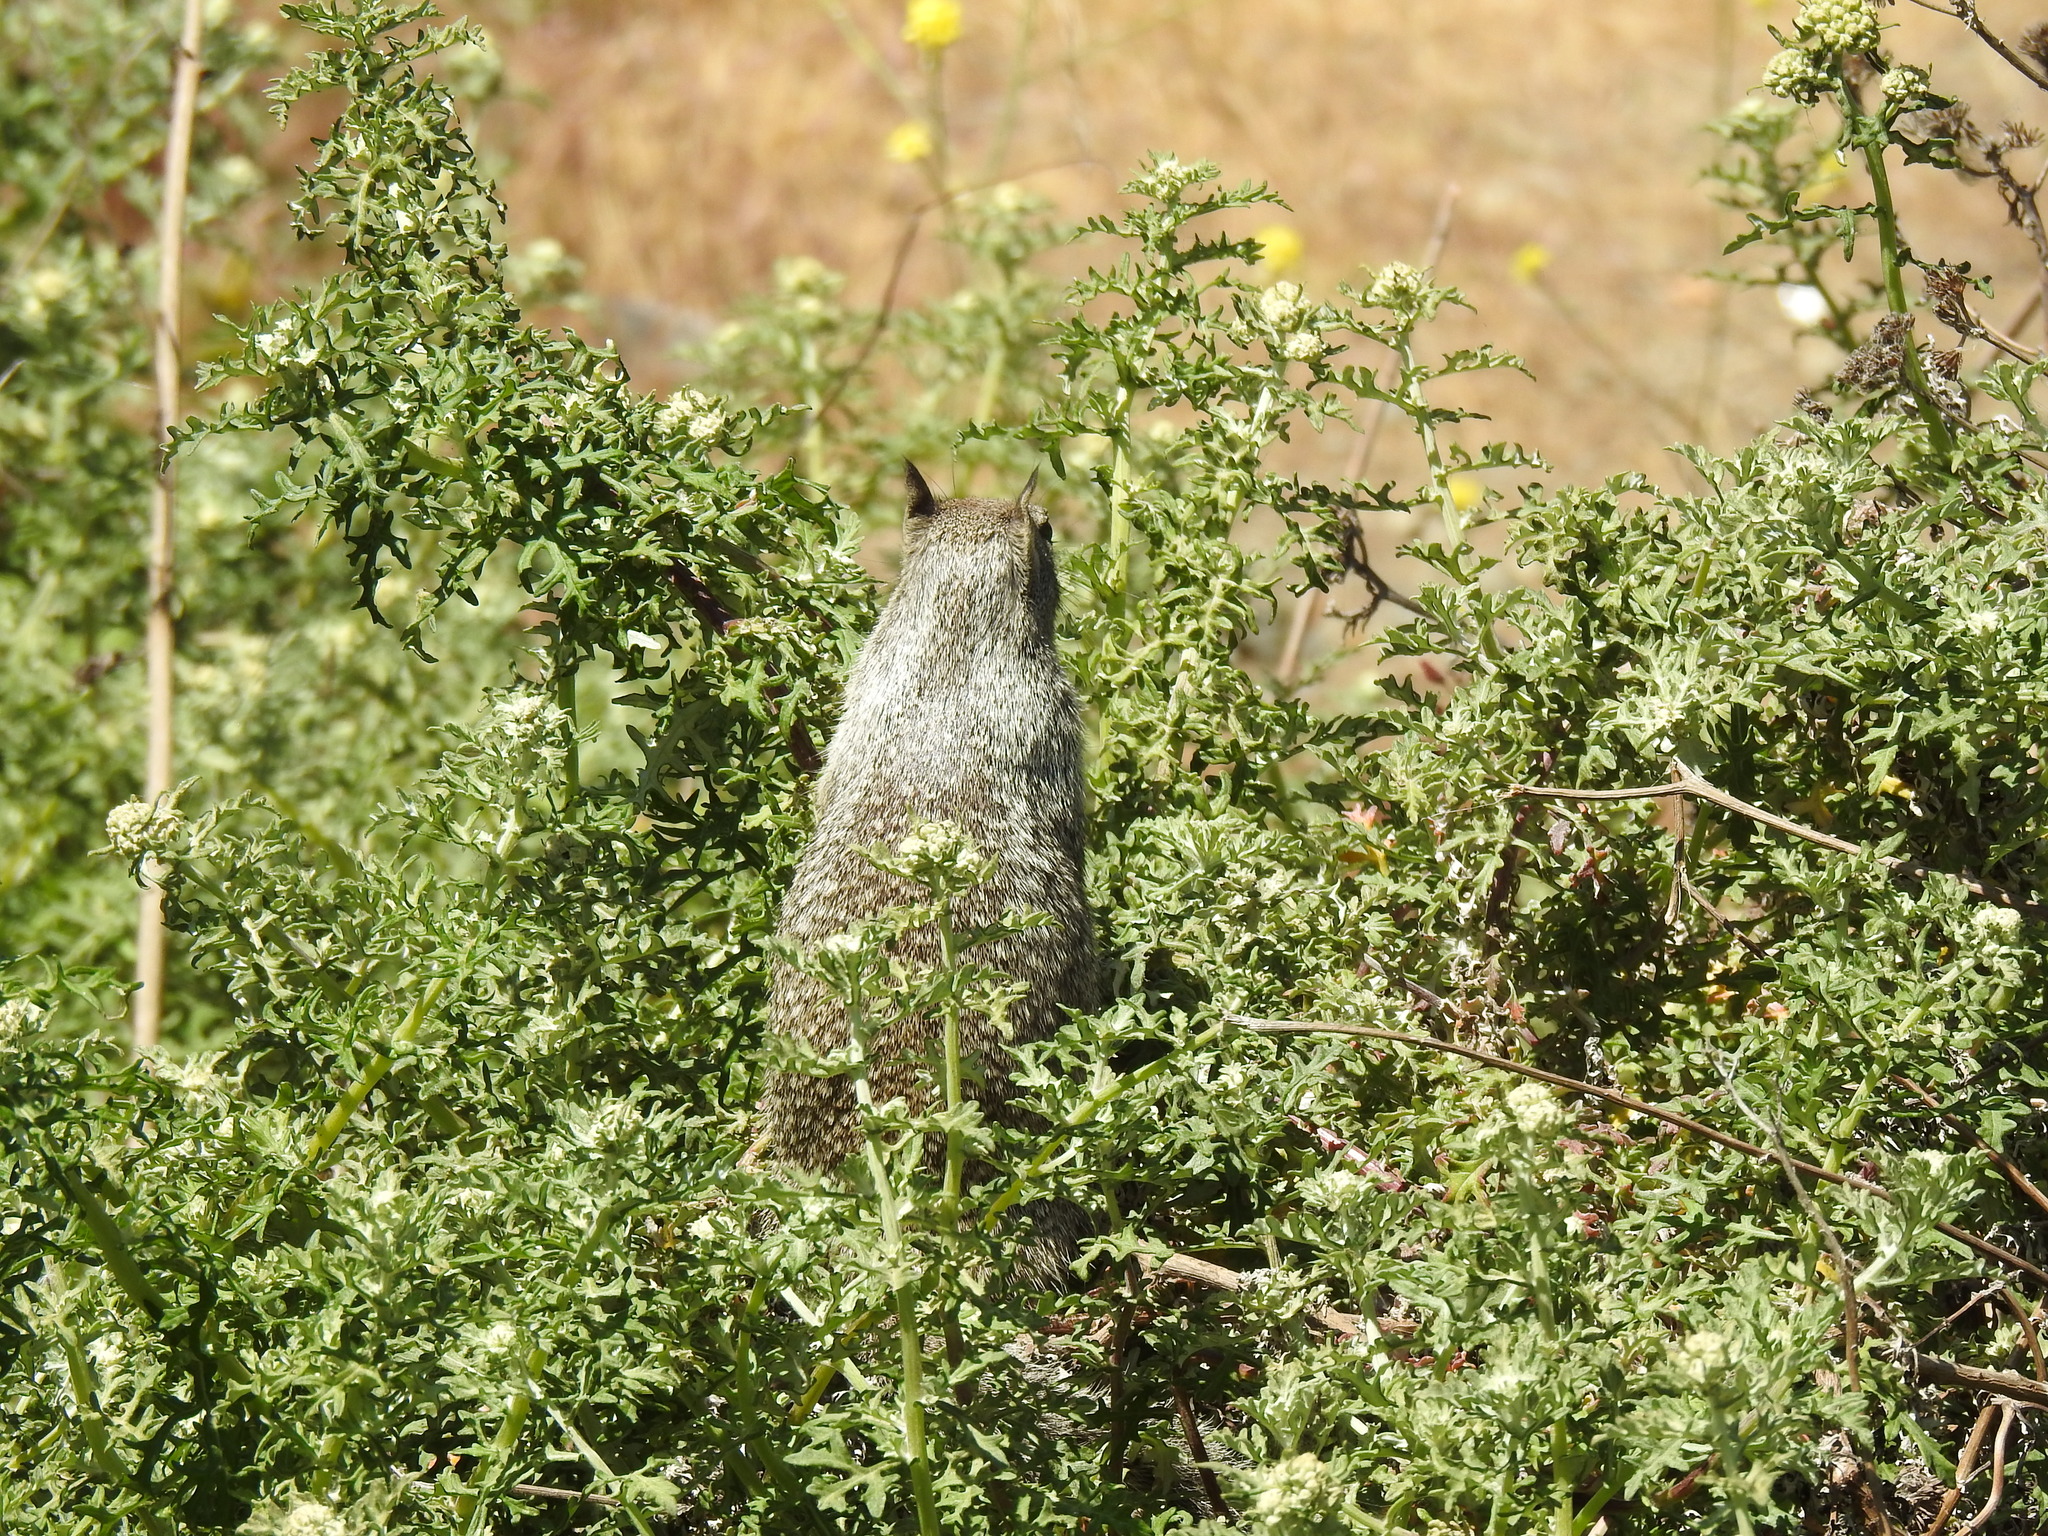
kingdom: Animalia
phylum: Chordata
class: Mammalia
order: Rodentia
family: Sciuridae
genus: Otospermophilus
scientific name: Otospermophilus beecheyi
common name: California ground squirrel
